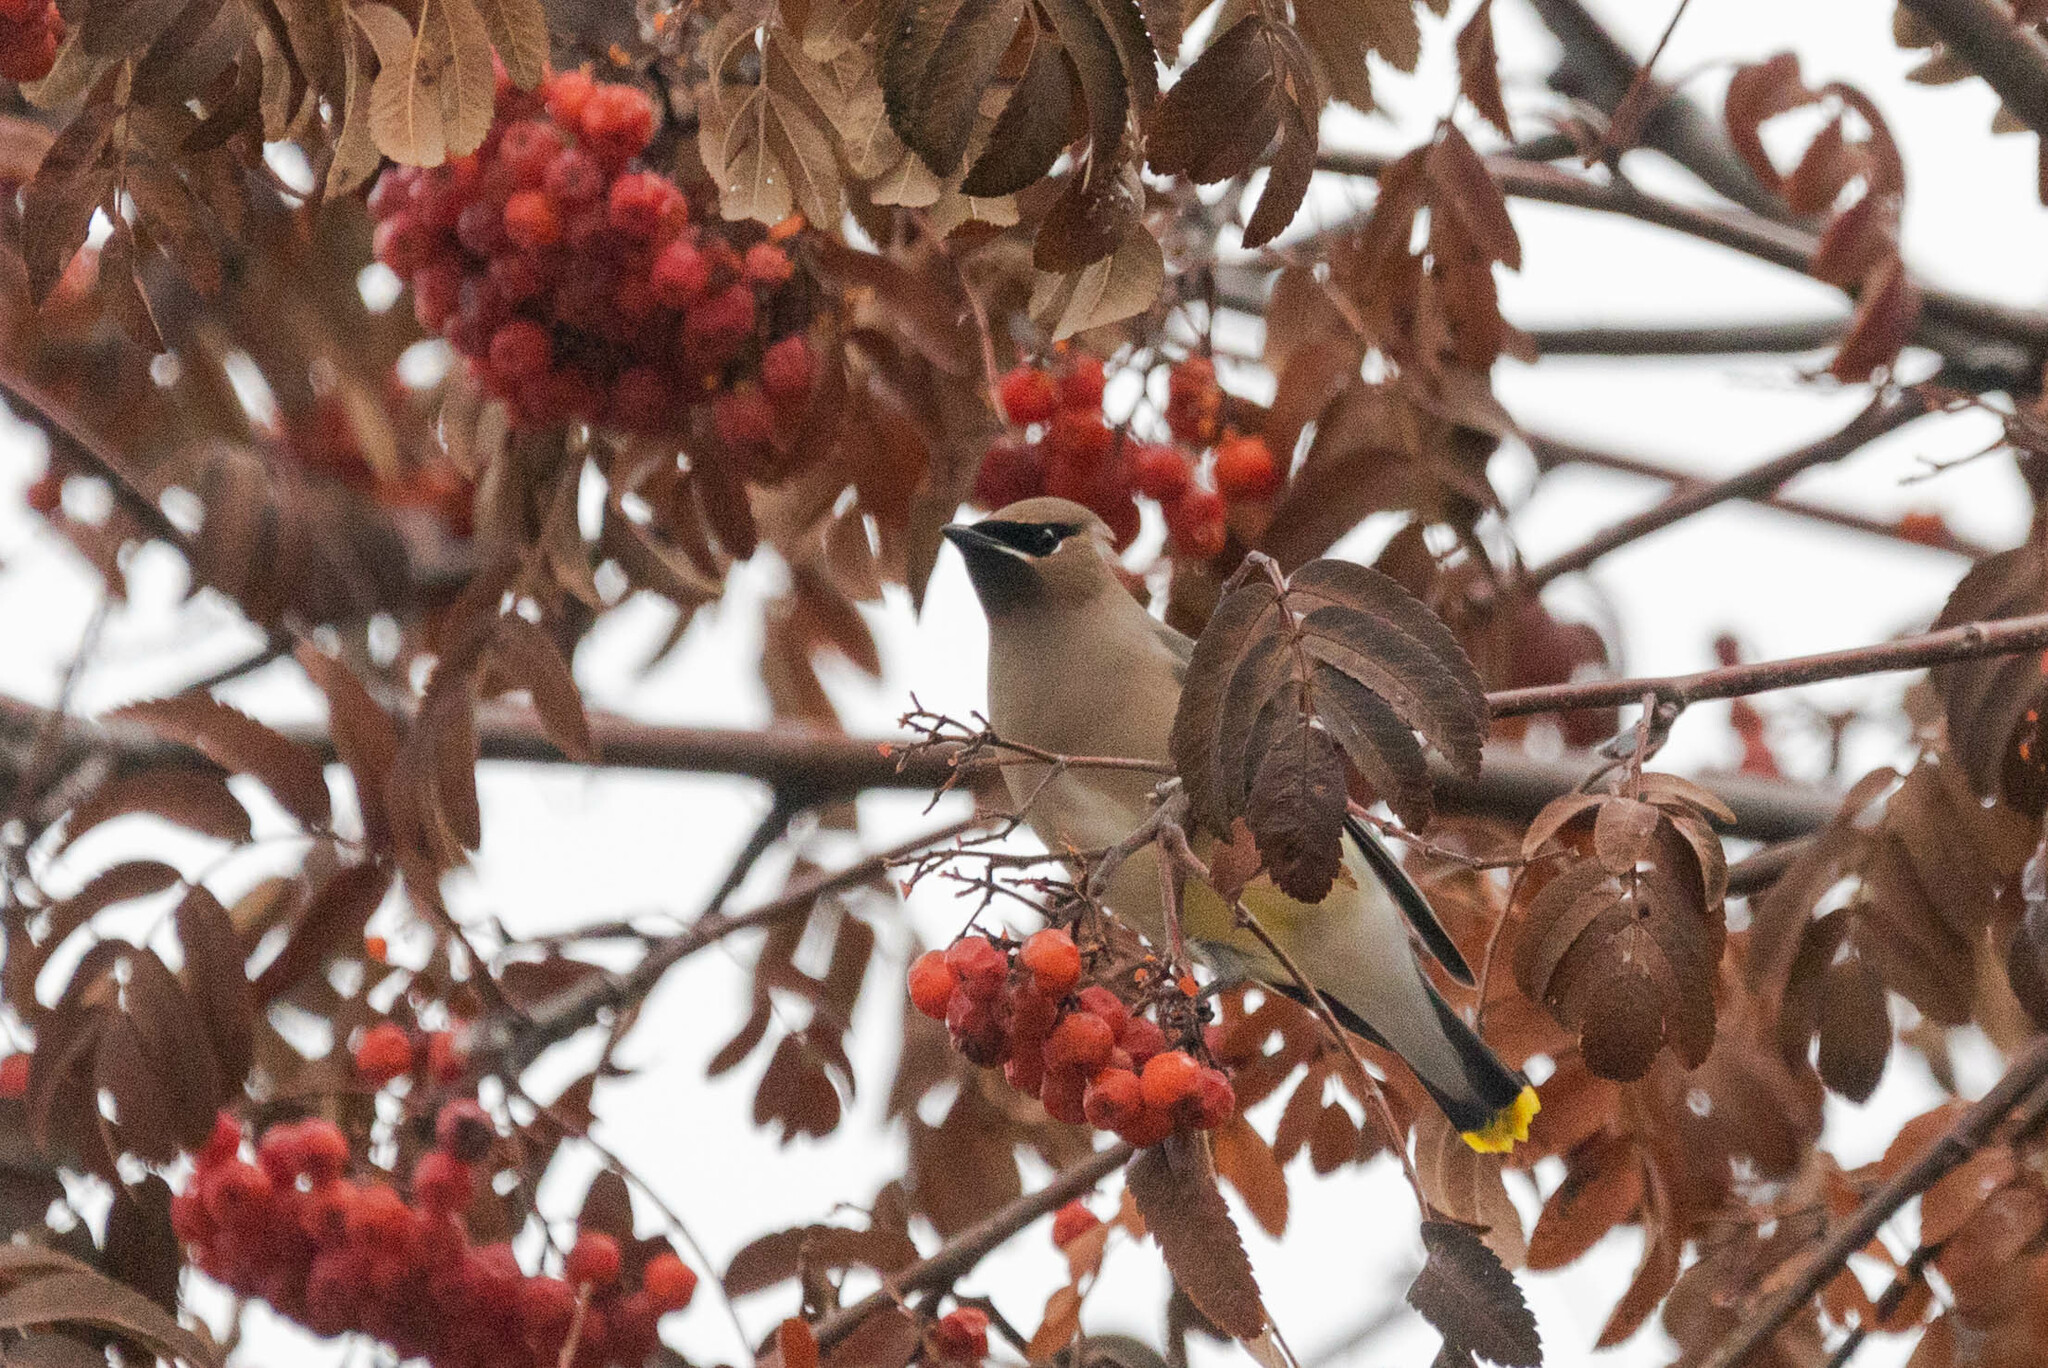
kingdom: Animalia
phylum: Chordata
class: Aves
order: Passeriformes
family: Bombycillidae
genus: Bombycilla
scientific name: Bombycilla cedrorum
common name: Cedar waxwing
